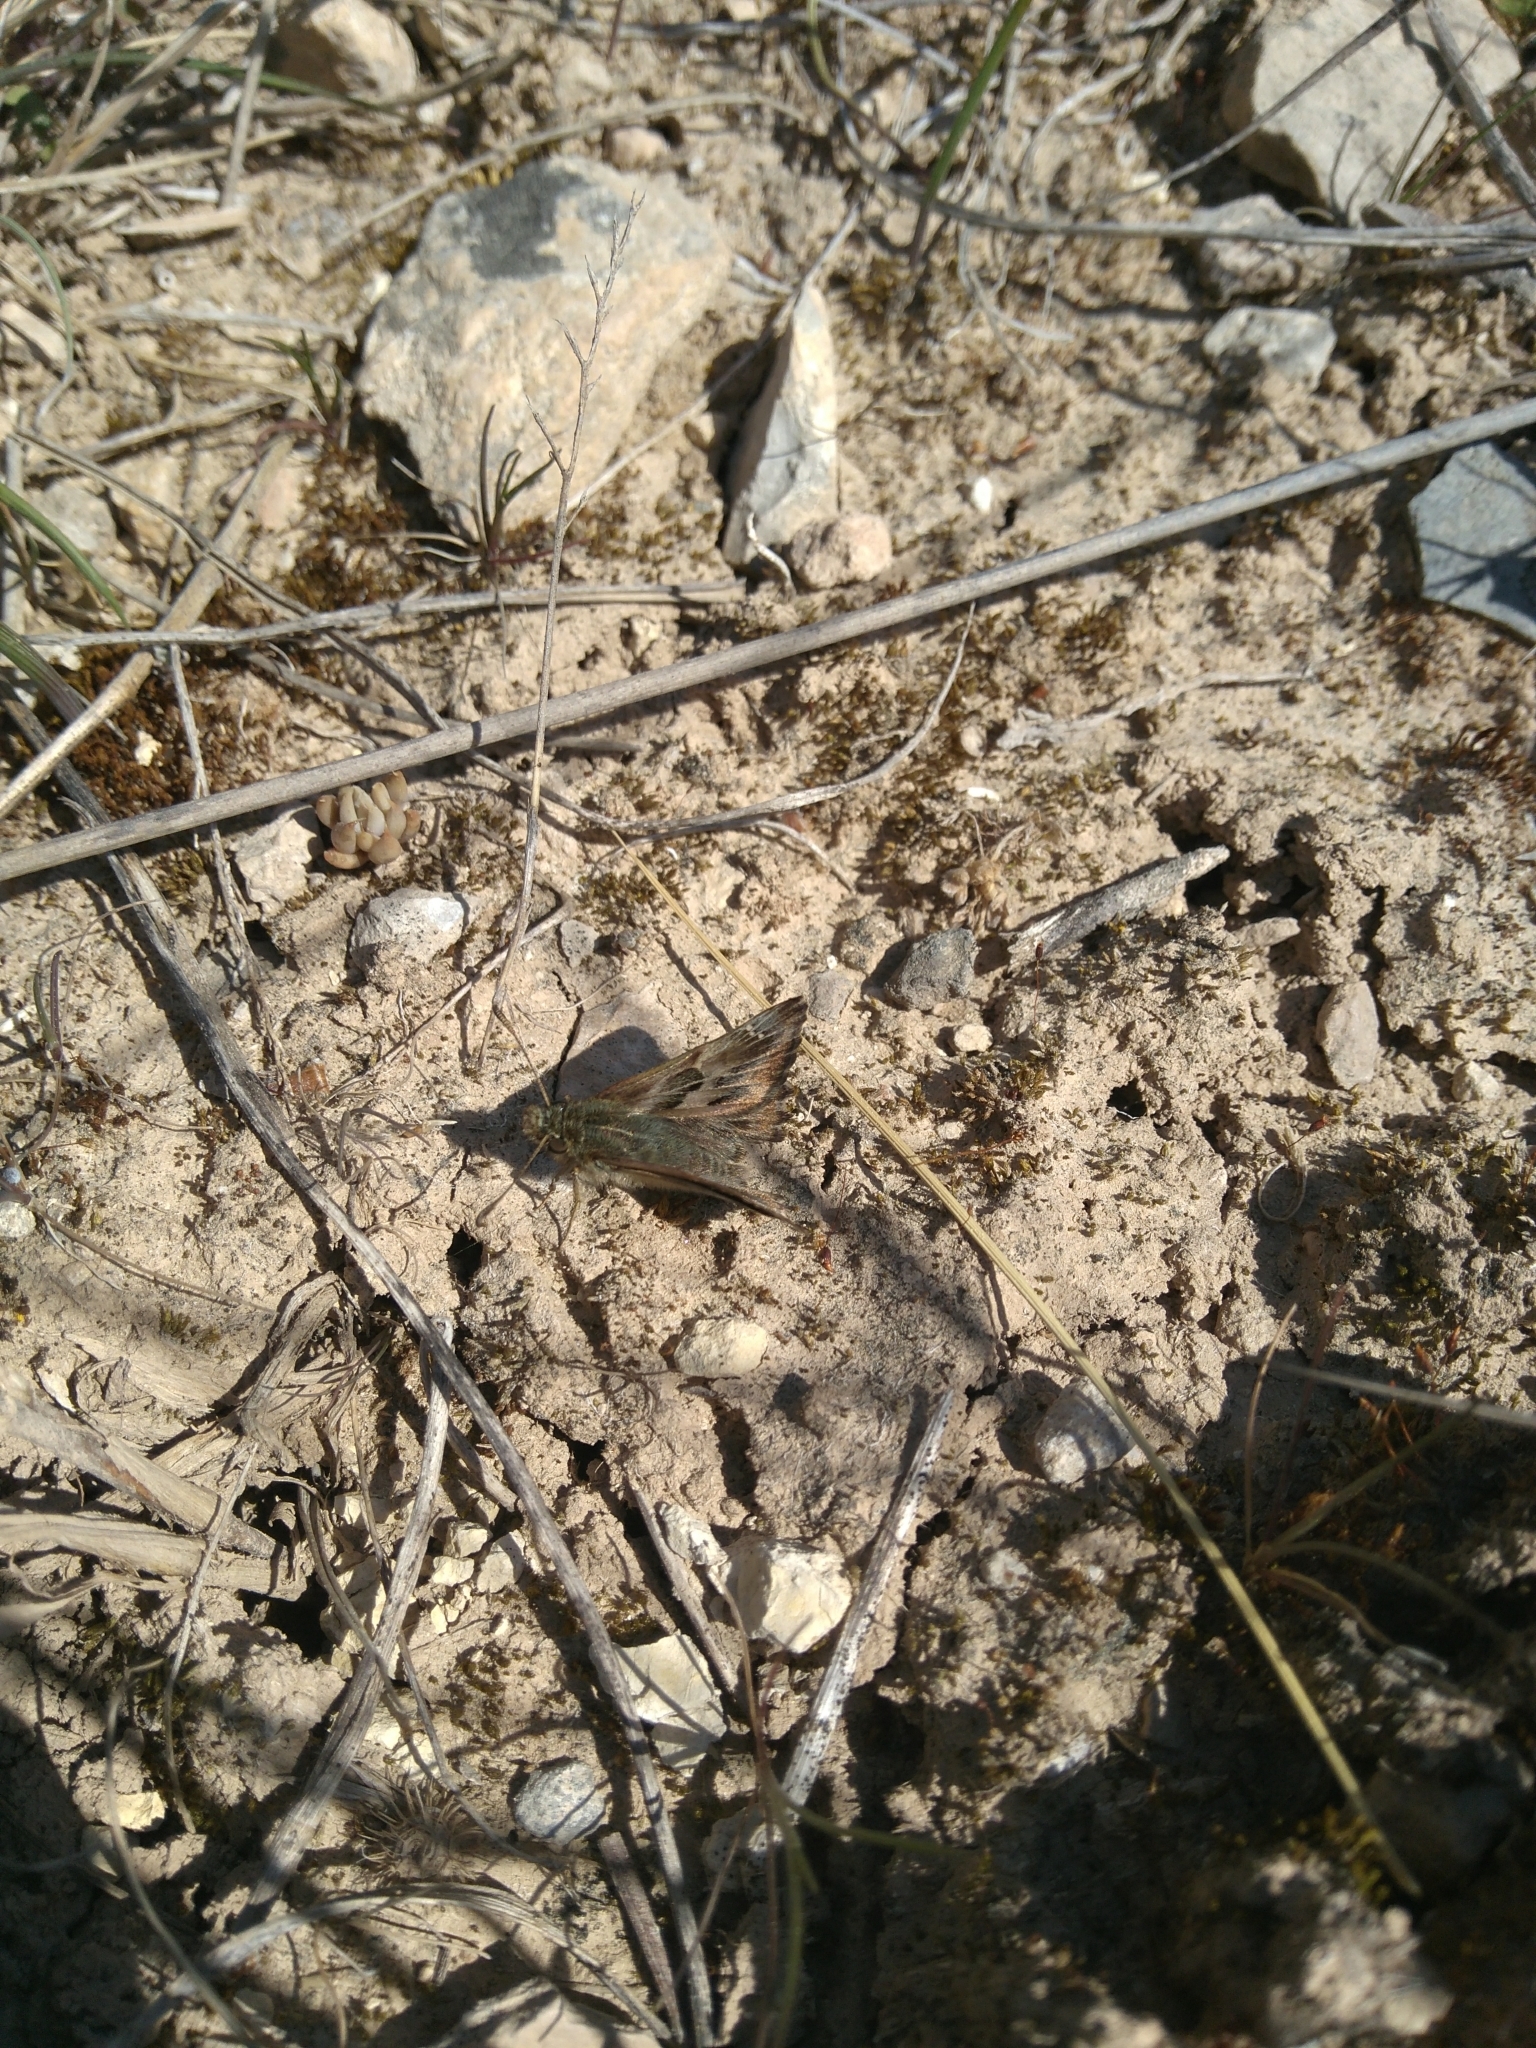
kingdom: Animalia
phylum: Arthropoda
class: Insecta
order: Lepidoptera
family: Hesperiidae
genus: Carcharodus
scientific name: Carcharodus alceae
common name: Mallow skipper
